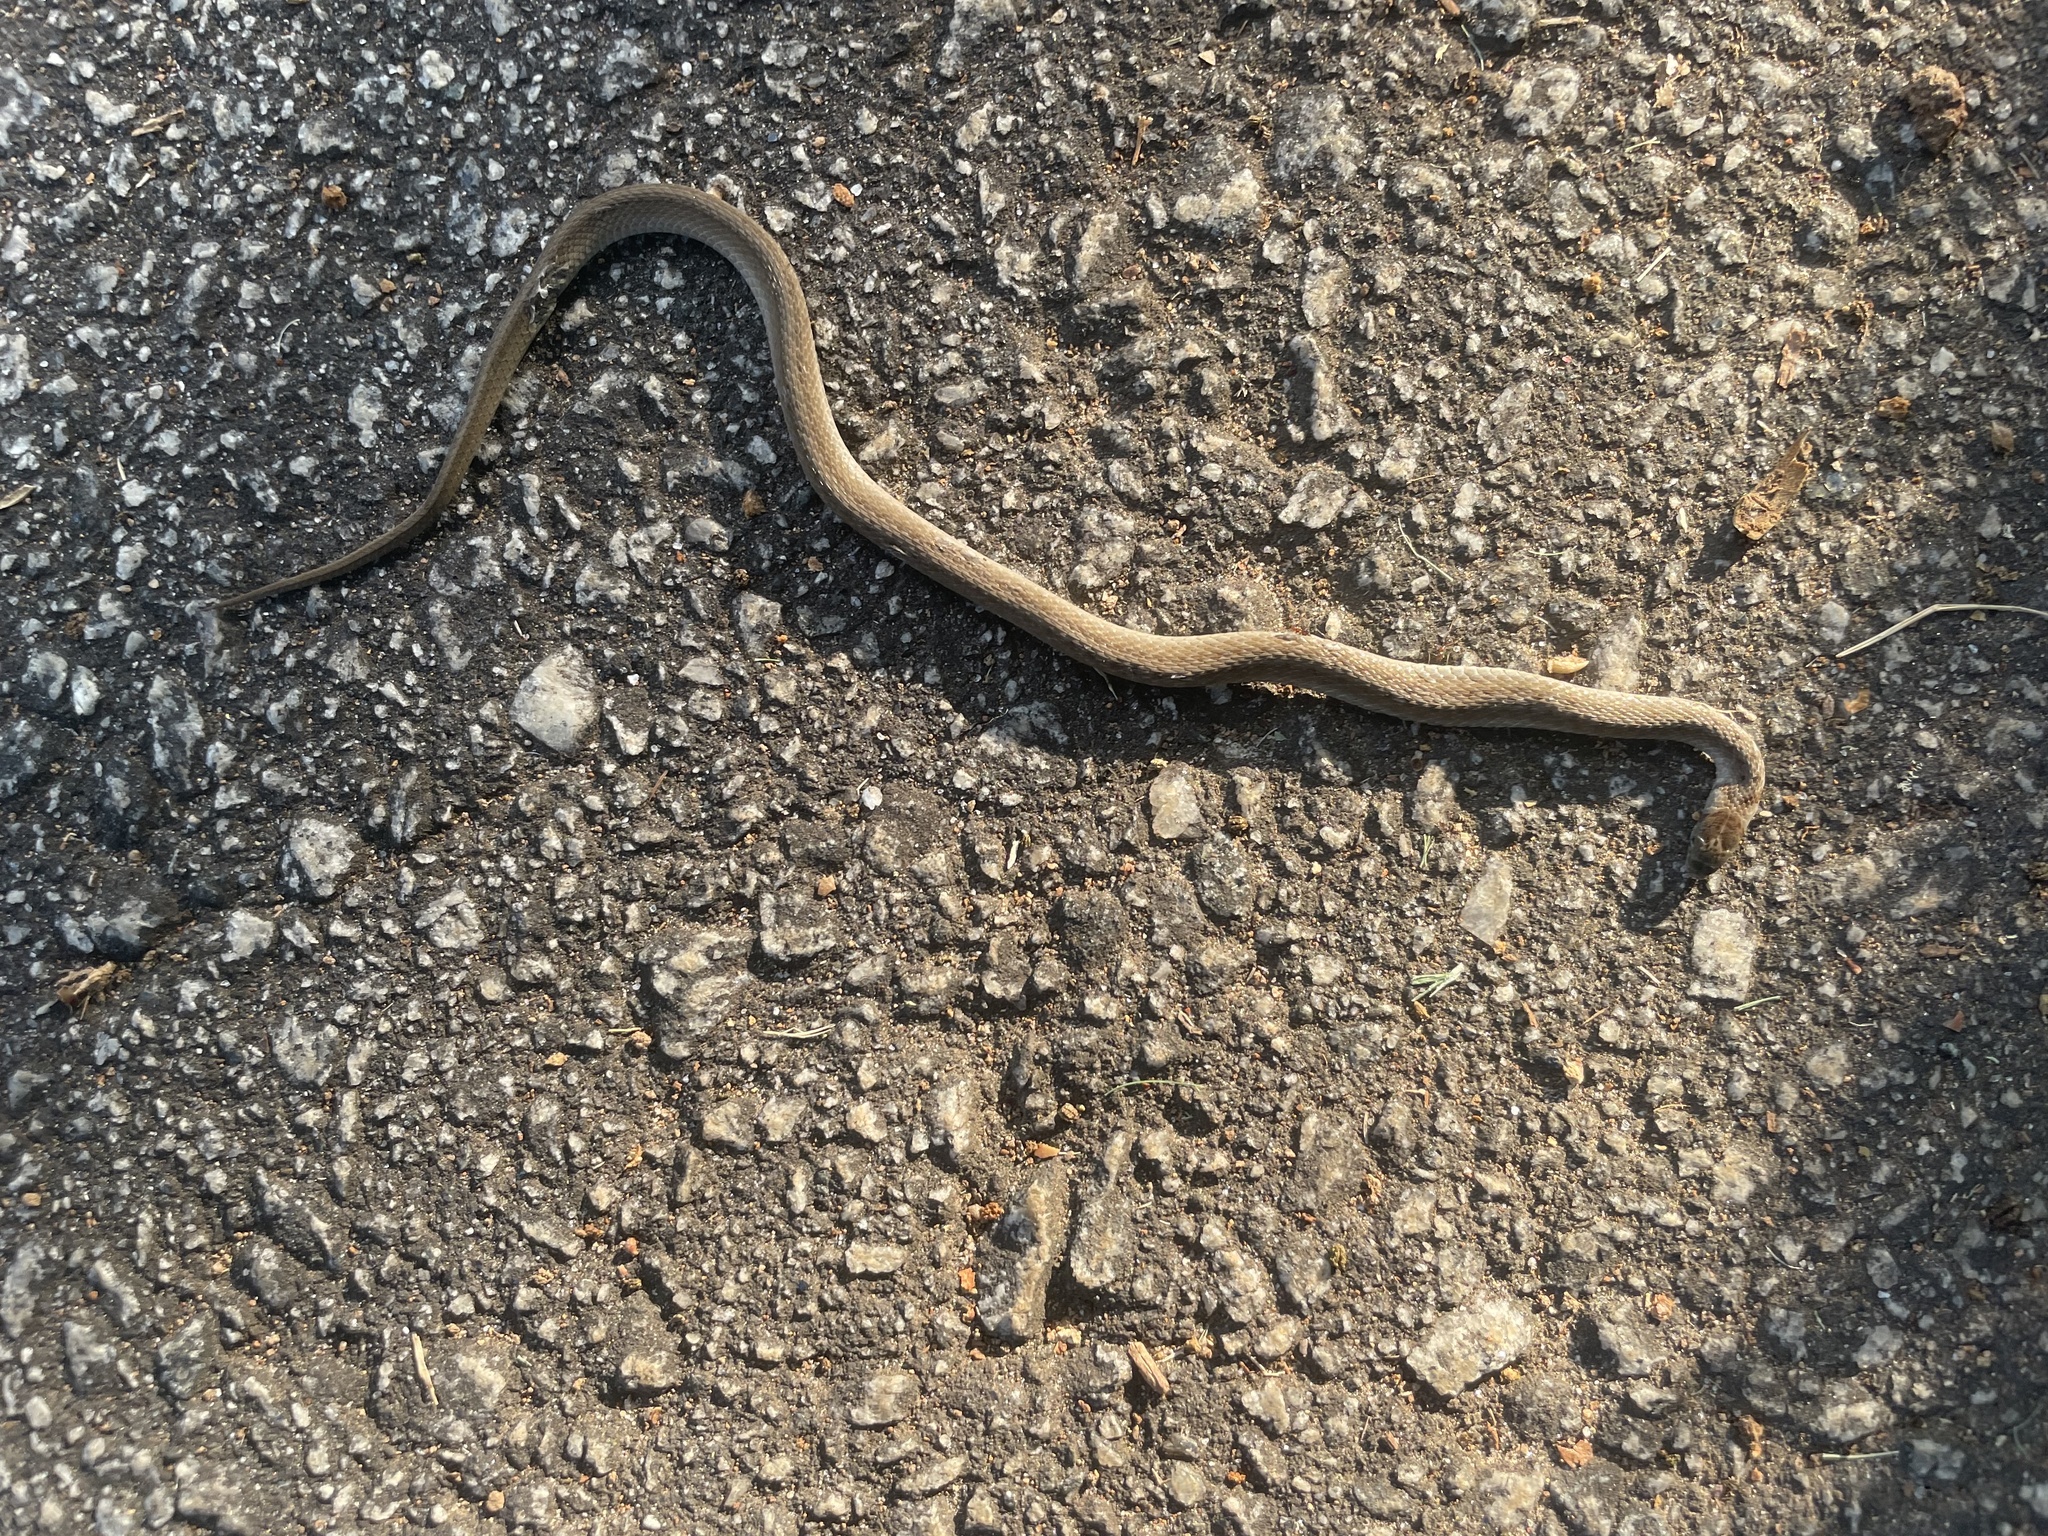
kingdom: Animalia
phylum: Chordata
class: Squamata
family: Colubridae
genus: Storeria
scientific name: Storeria dekayi
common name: (dekay’s) brown snake
